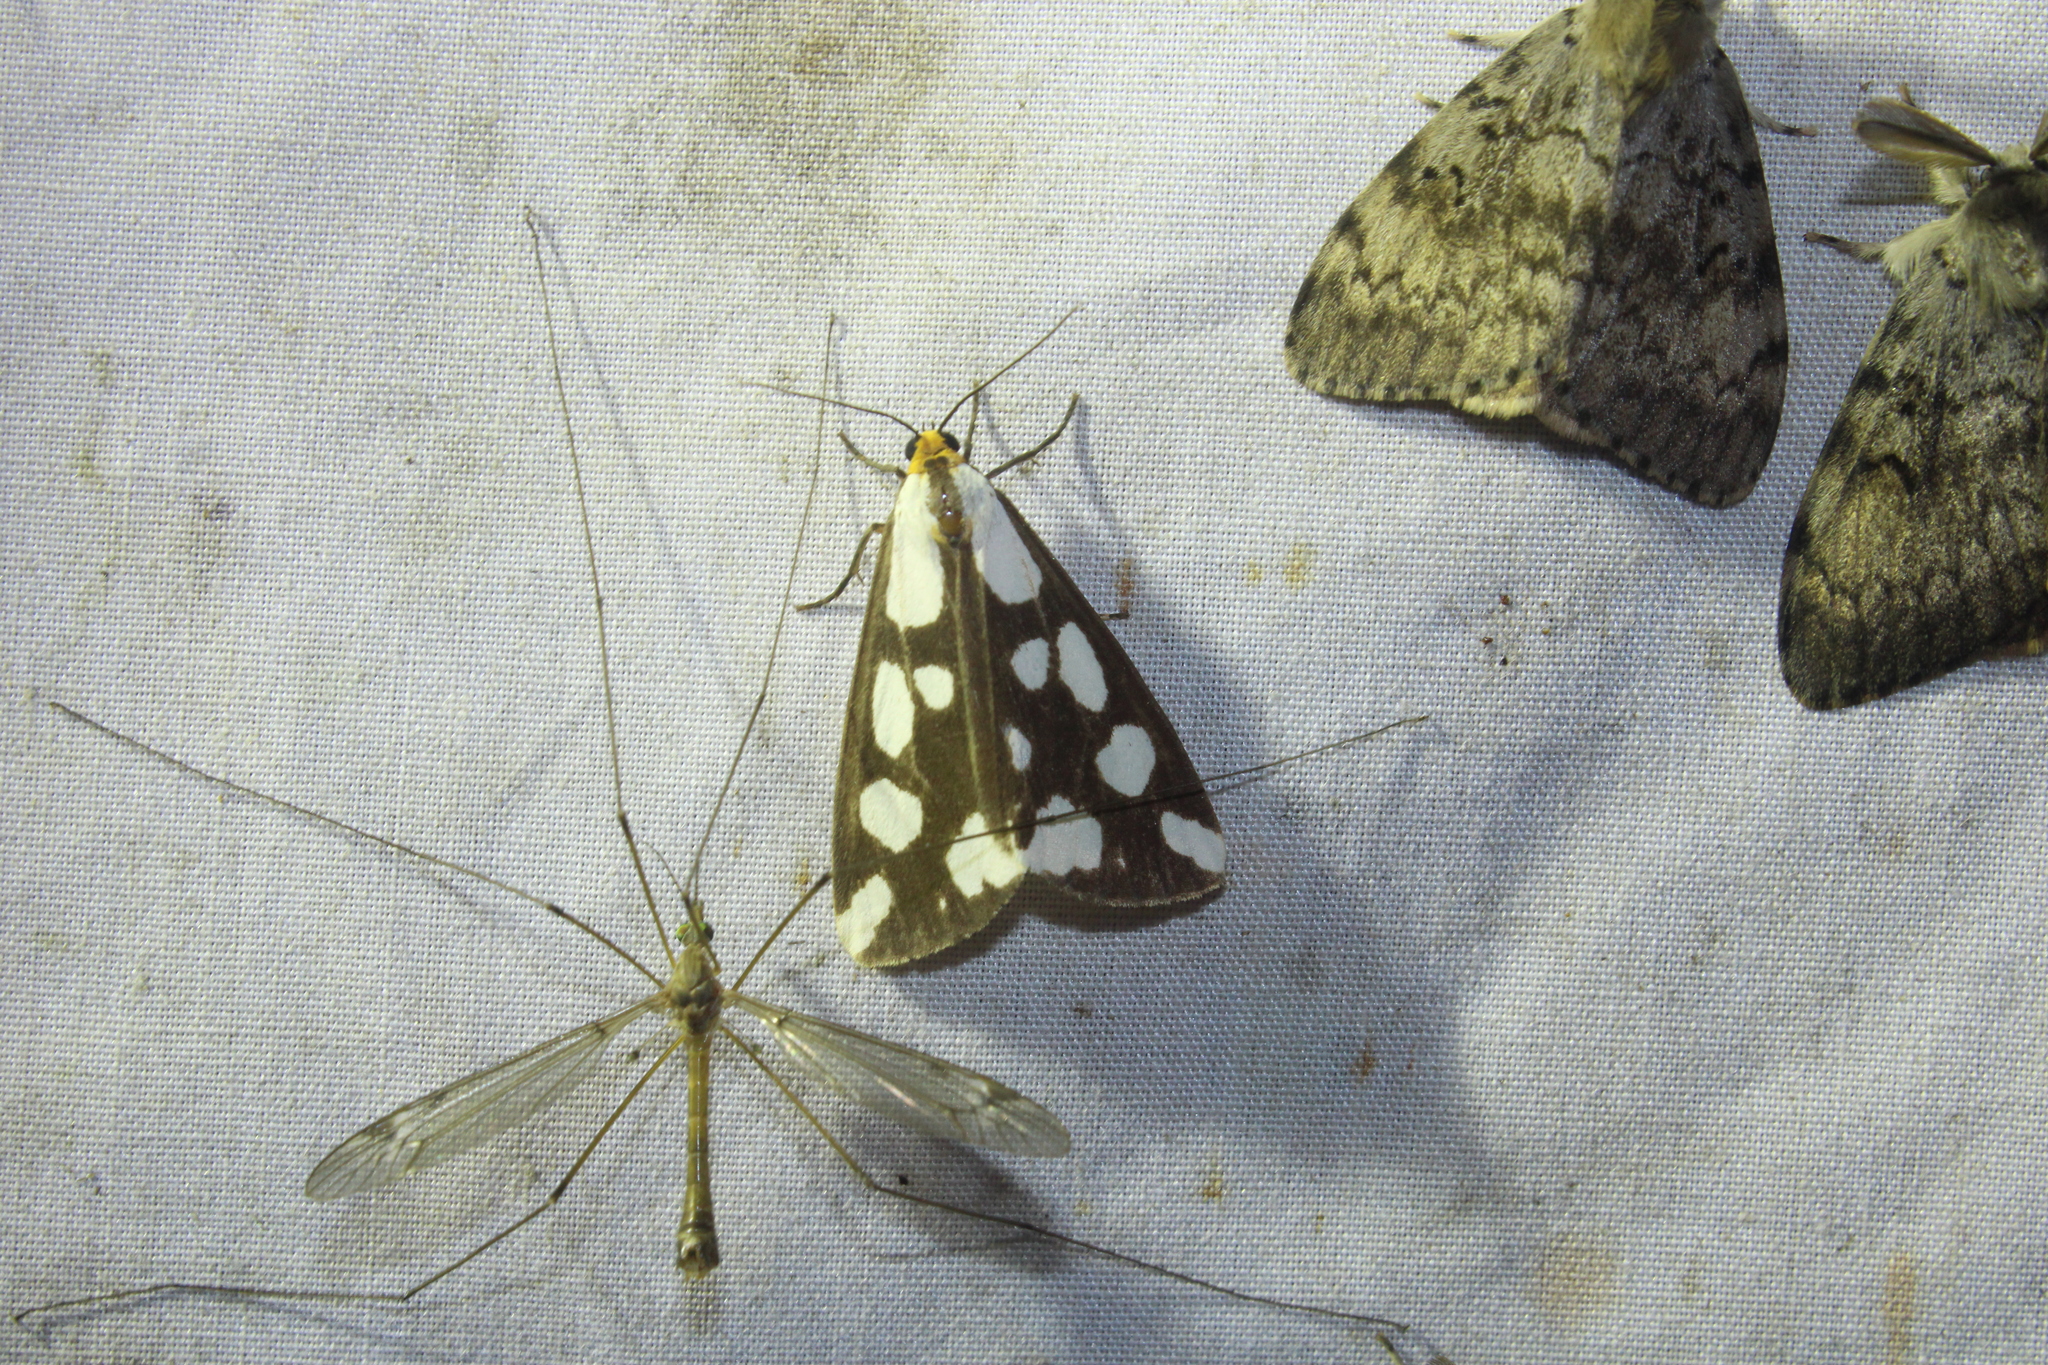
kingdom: Animalia
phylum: Arthropoda
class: Insecta
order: Lepidoptera
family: Erebidae
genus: Haploa
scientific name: Haploa confusa
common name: Confused haploa moth
